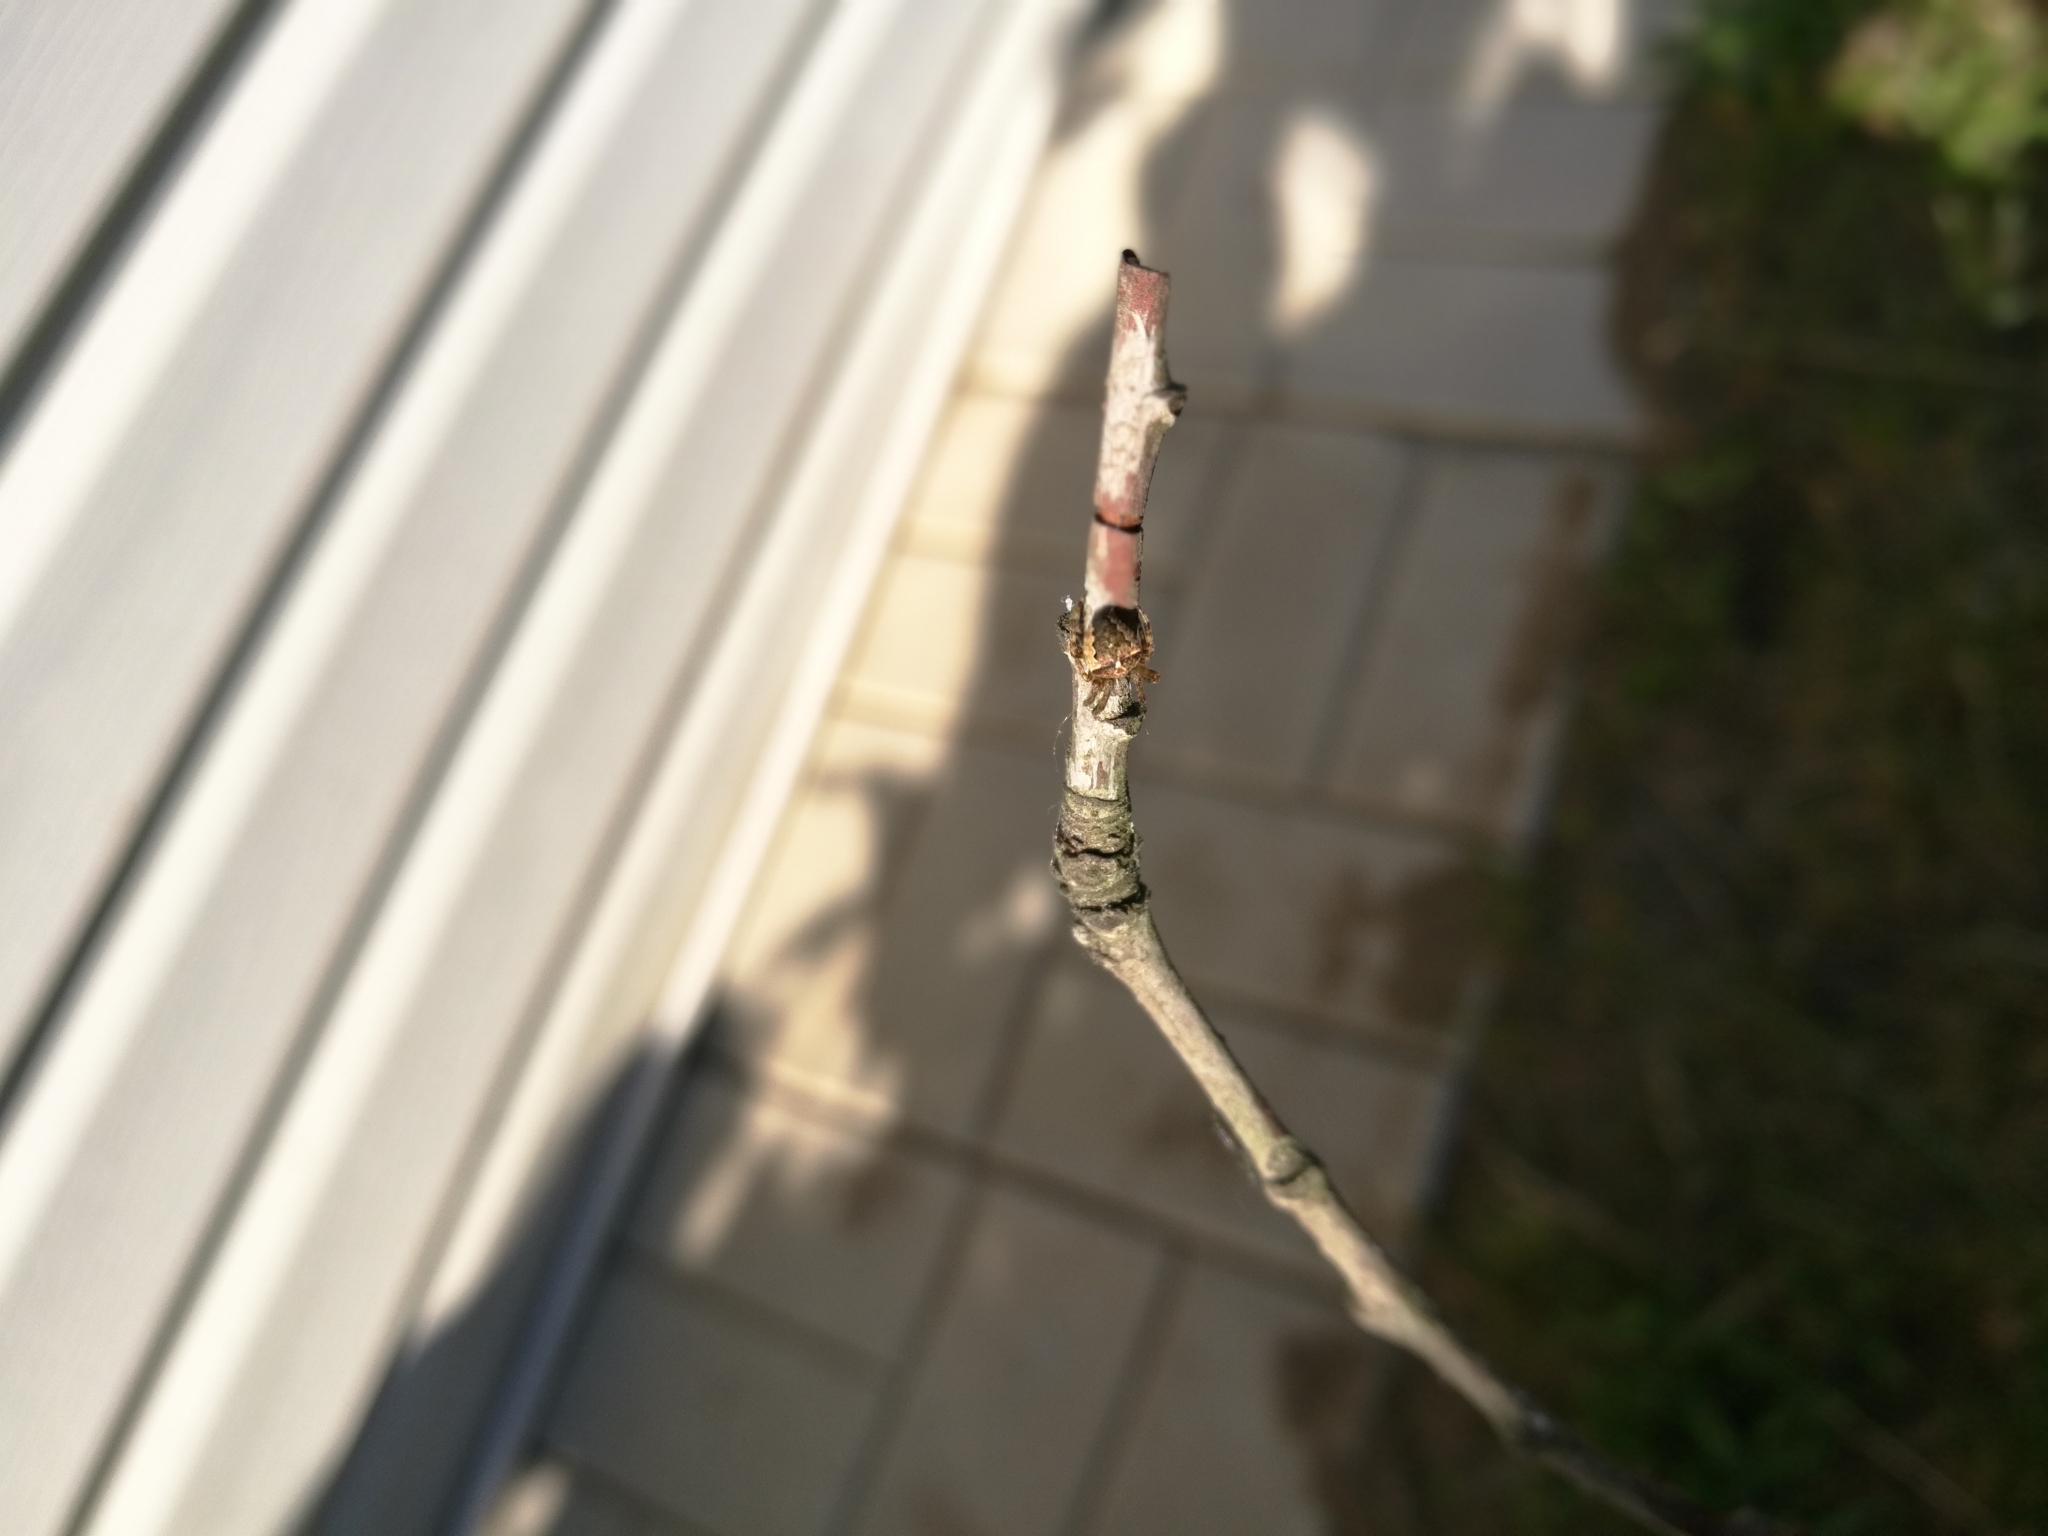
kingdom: Animalia
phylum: Arthropoda
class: Arachnida
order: Araneae
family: Araneidae
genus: Araneus
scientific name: Araneus angulatus
